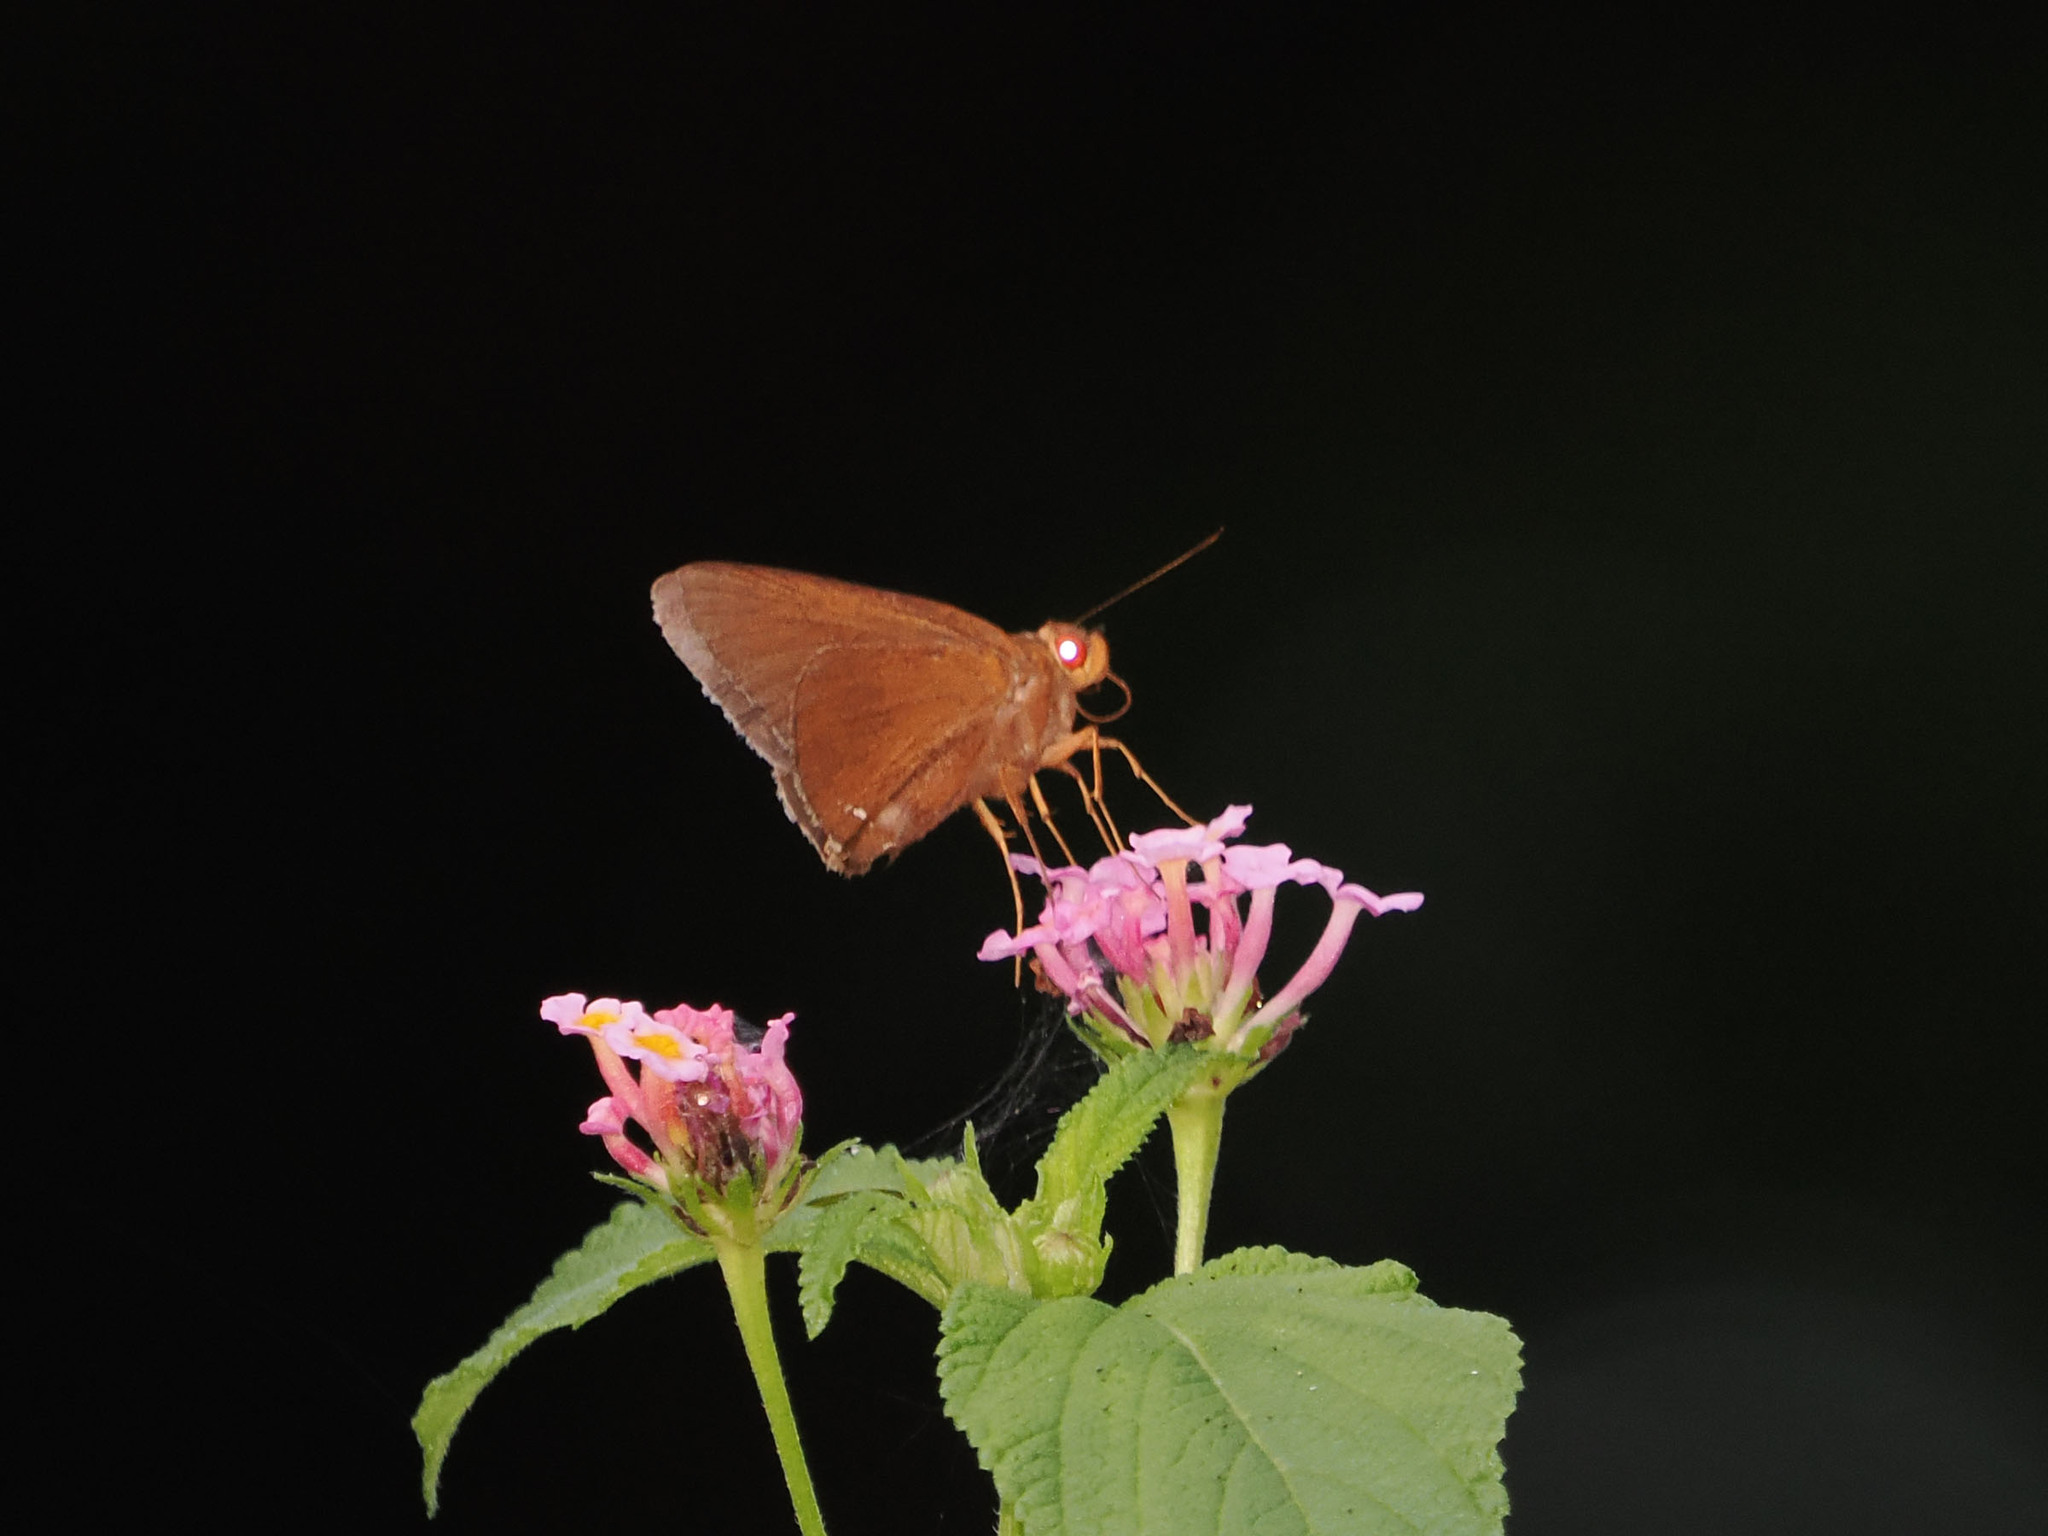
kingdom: Animalia
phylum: Arthropoda
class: Insecta
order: Lepidoptera
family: Hesperiidae
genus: Matapa
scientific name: Matapa aria
